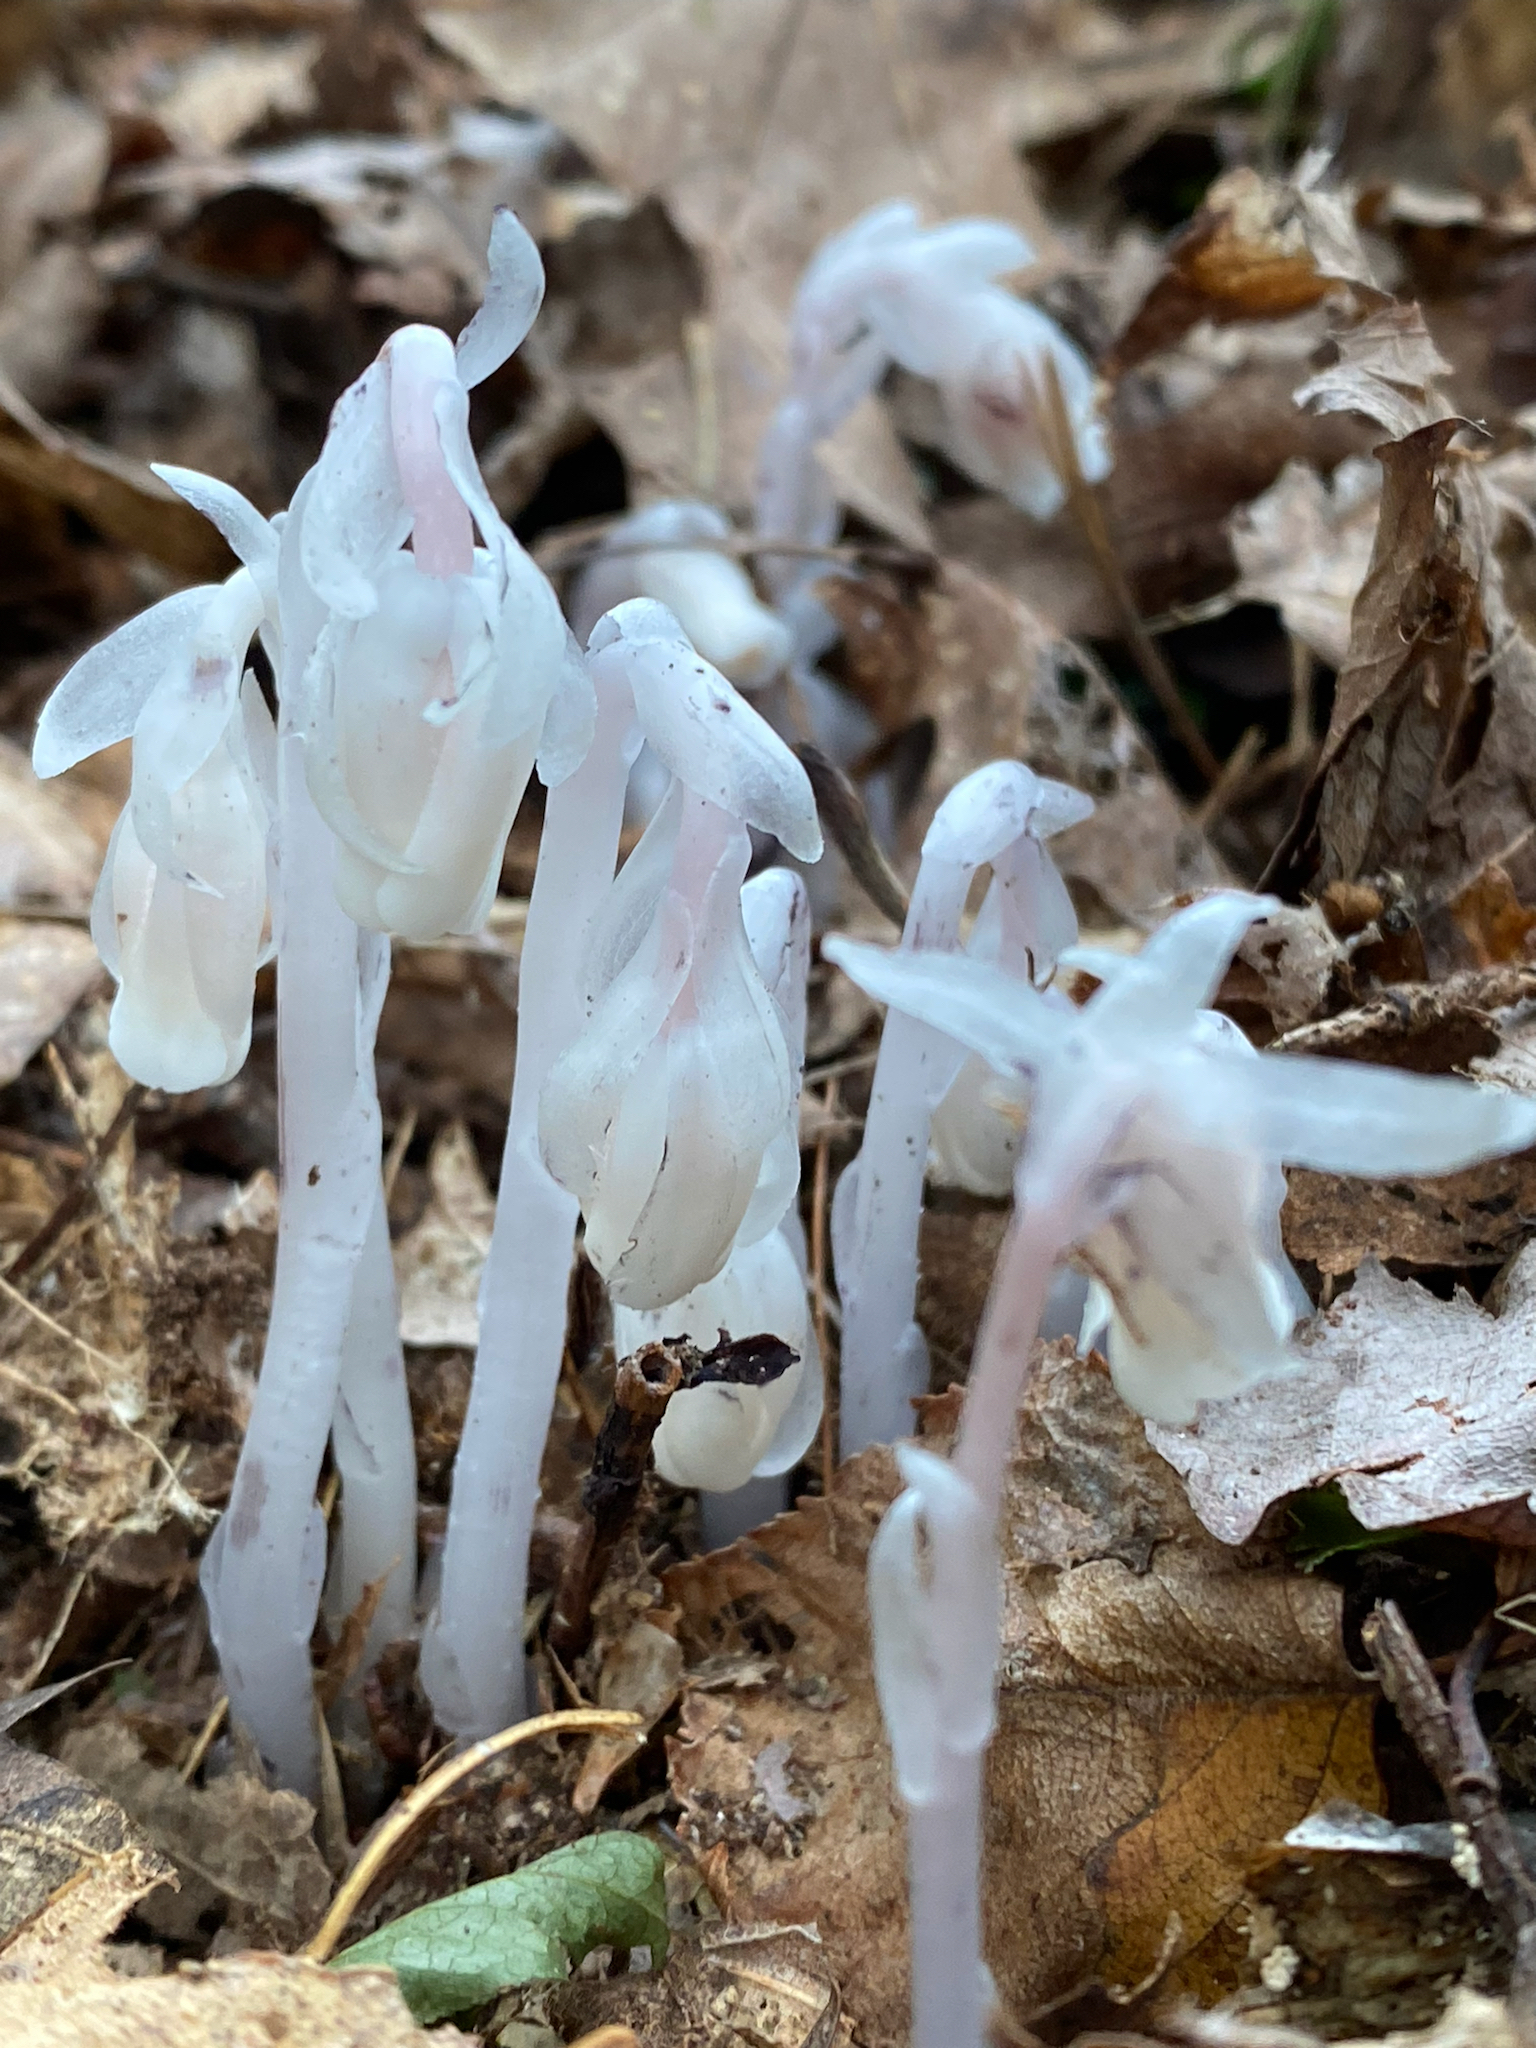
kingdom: Plantae
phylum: Tracheophyta
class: Magnoliopsida
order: Ericales
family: Ericaceae
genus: Monotropa
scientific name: Monotropa uniflora
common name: Convulsion root
